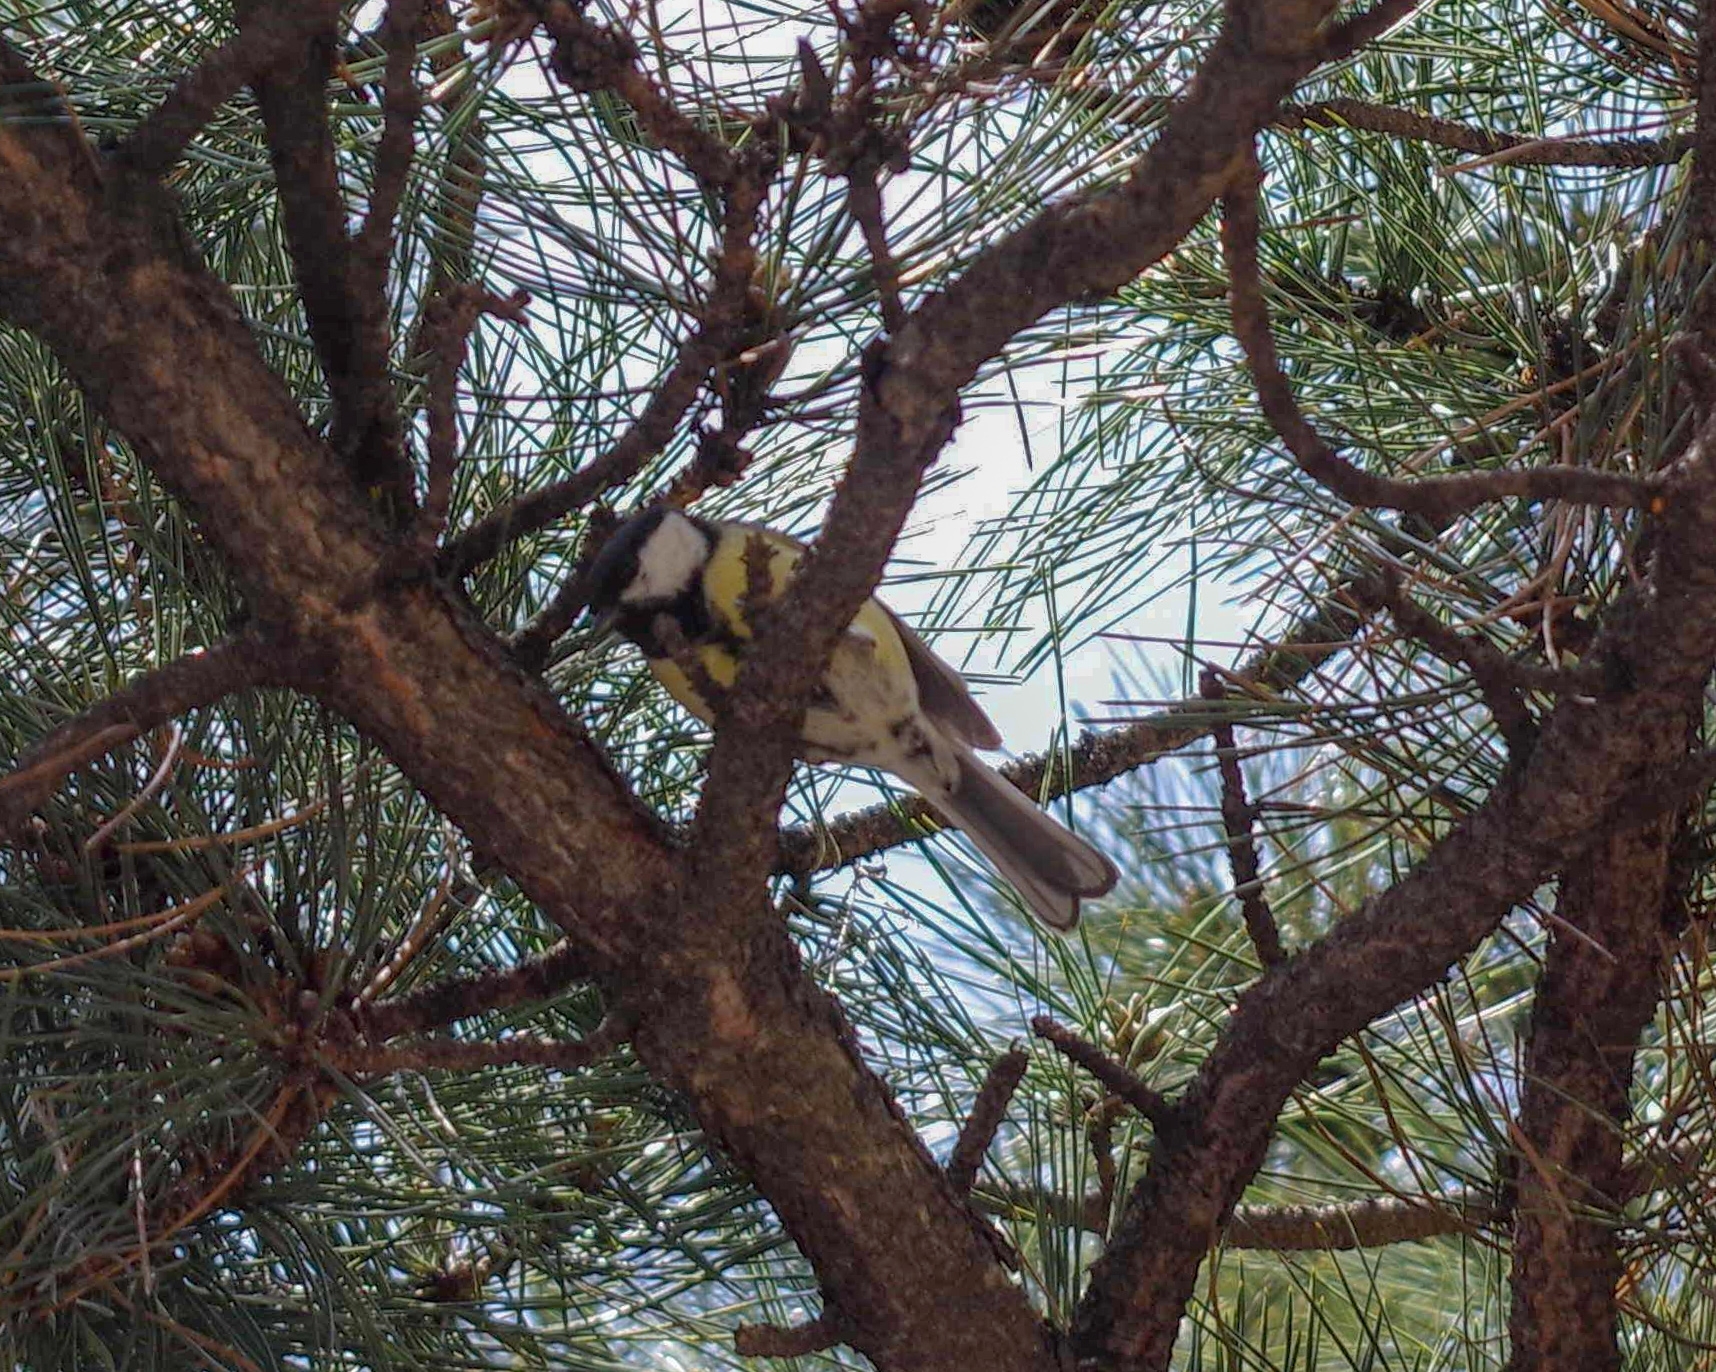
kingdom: Animalia
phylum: Chordata
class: Aves
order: Passeriformes
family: Paridae
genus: Parus
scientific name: Parus major
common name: Great tit
